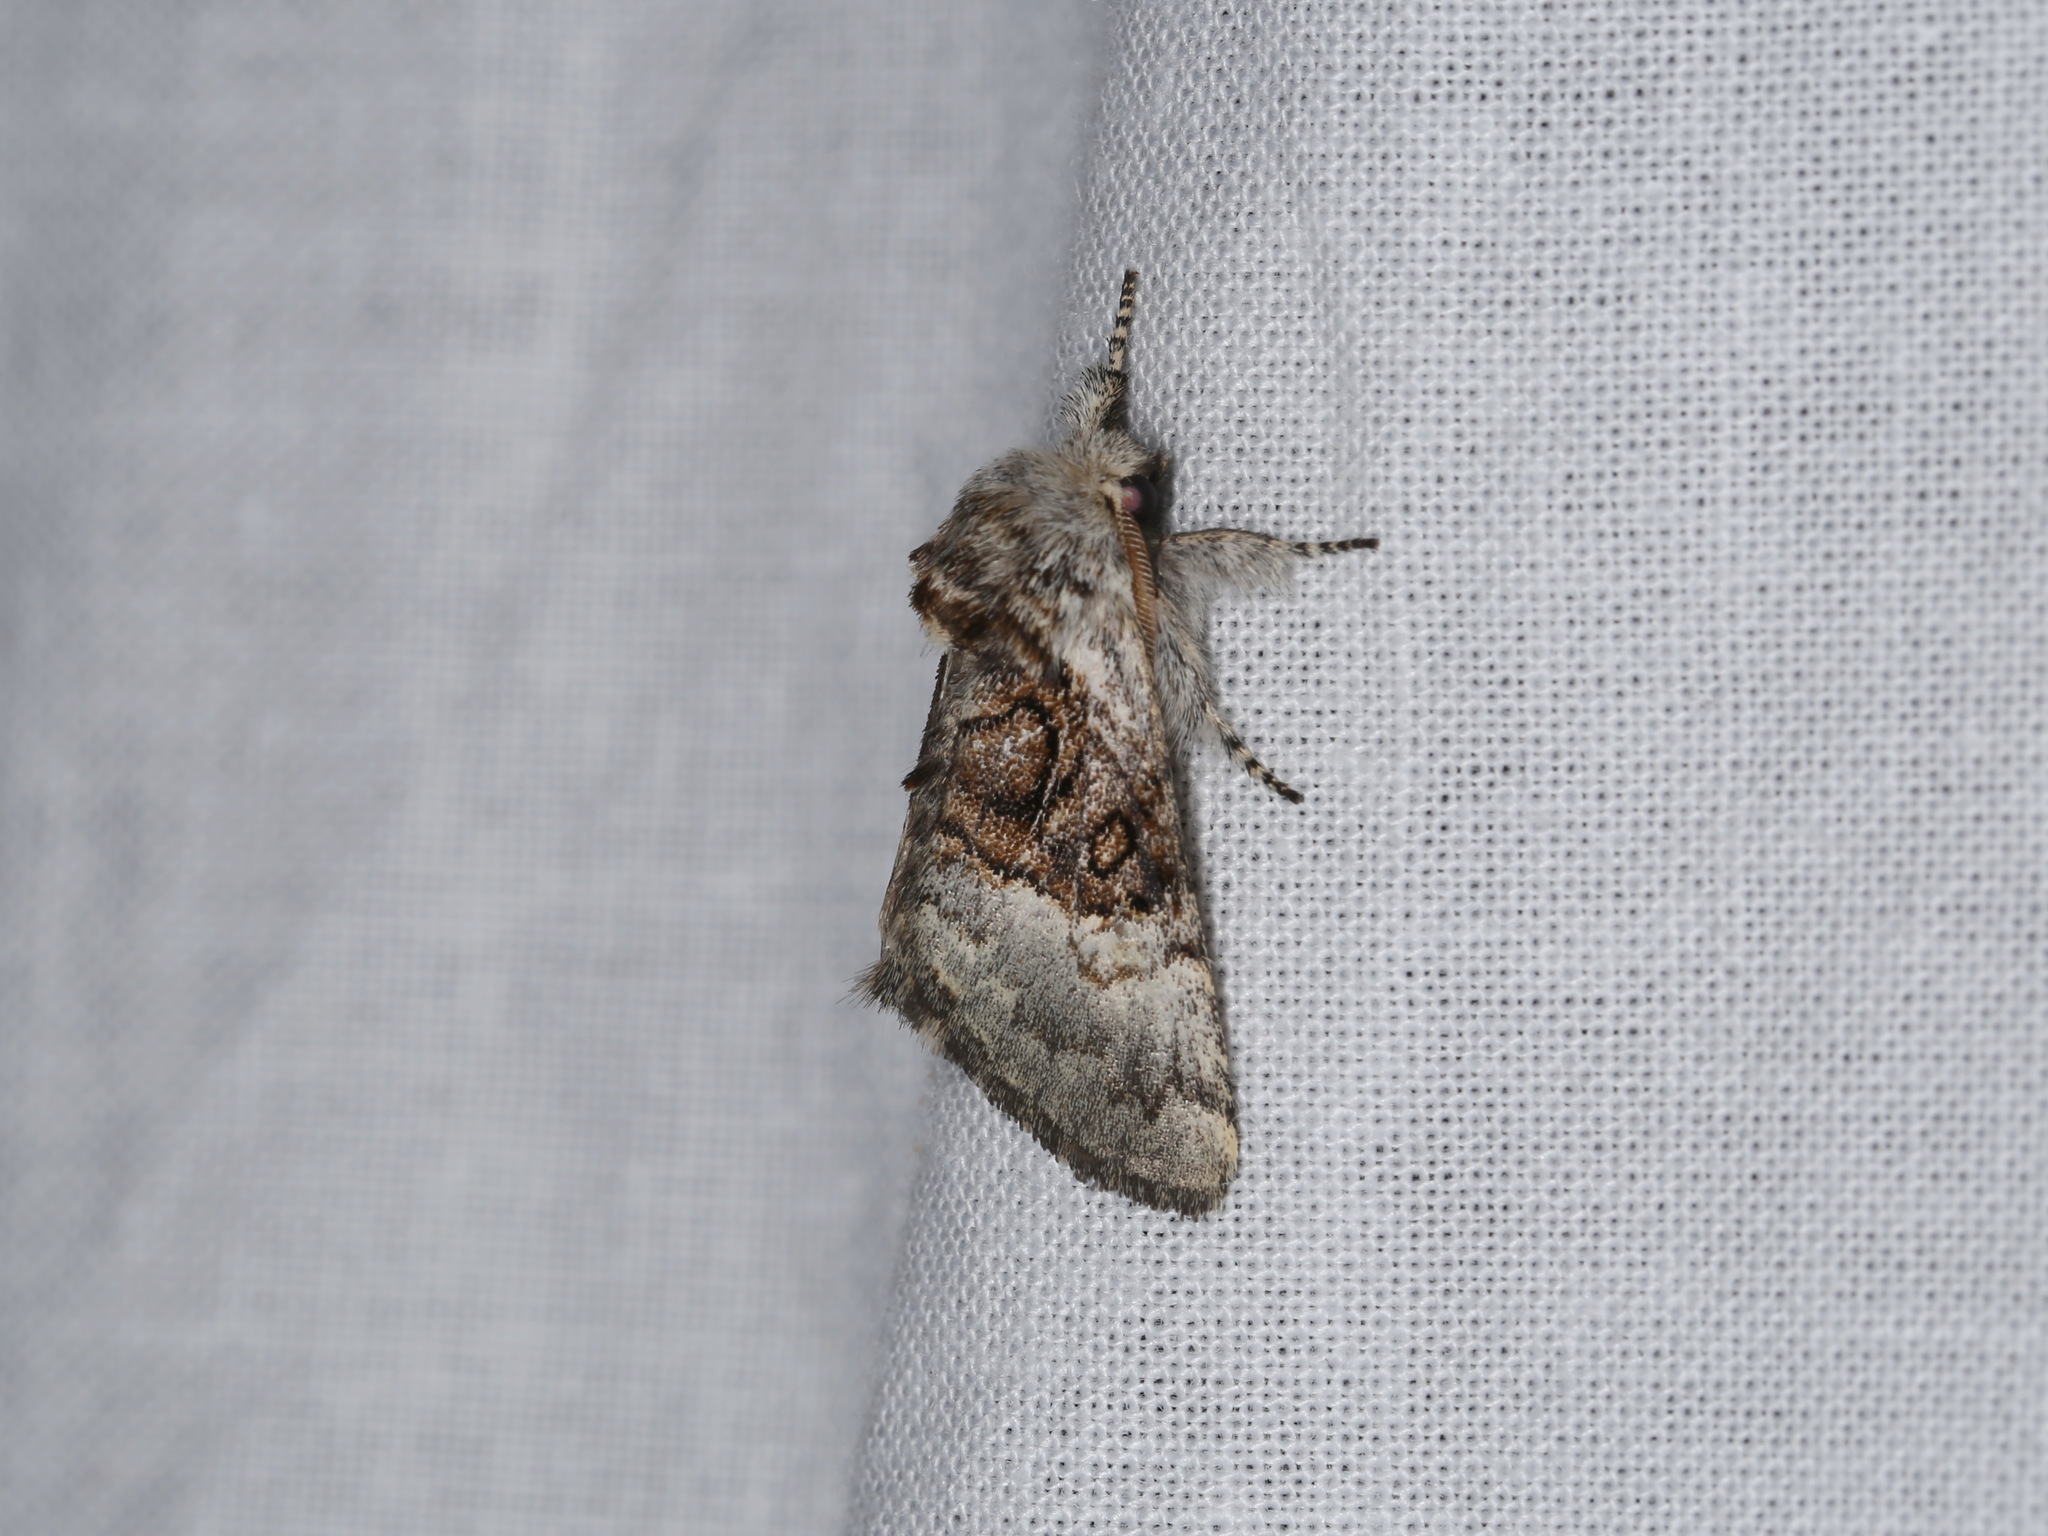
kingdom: Animalia
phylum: Arthropoda
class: Insecta
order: Lepidoptera
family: Noctuidae
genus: Colocasia
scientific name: Colocasia coryli
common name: Nut-tree tussock
